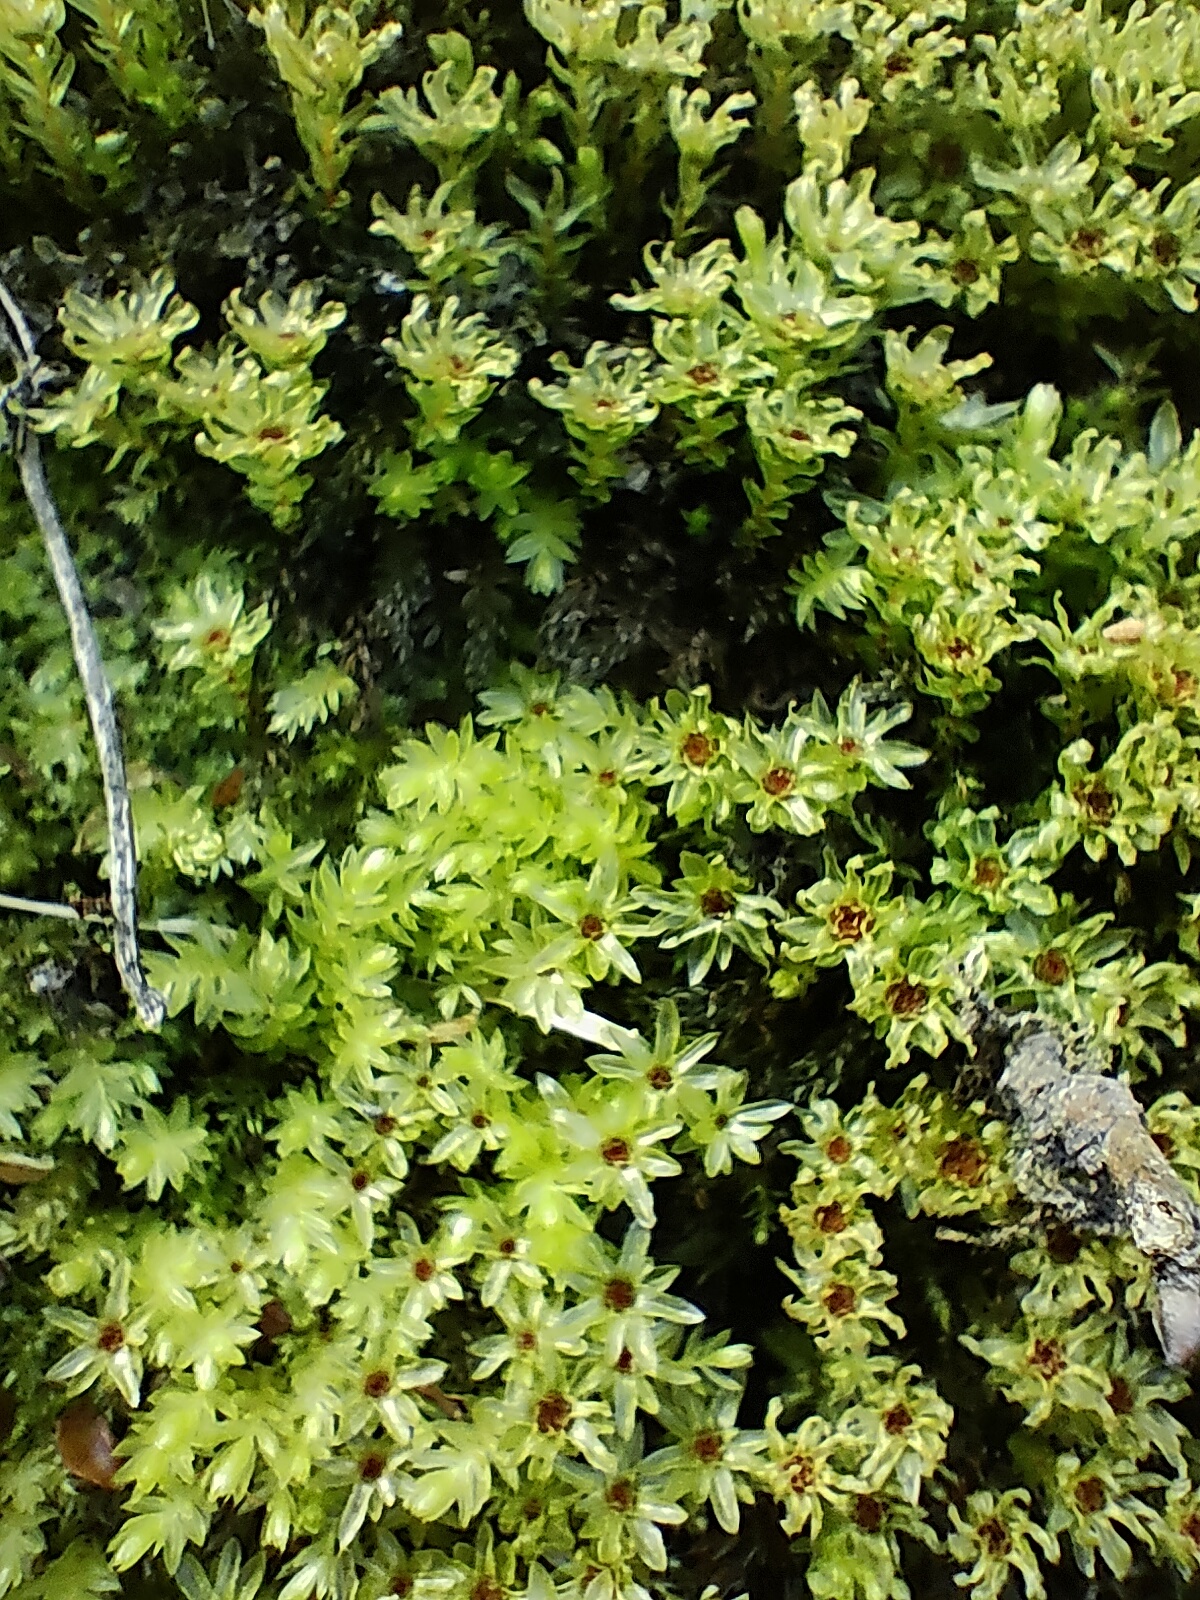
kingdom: Plantae
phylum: Bryophyta
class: Bryopsida
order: Bryales
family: Mniaceae
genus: Mnium
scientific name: Mnium hornum
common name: Swan's-neck leafy moss
